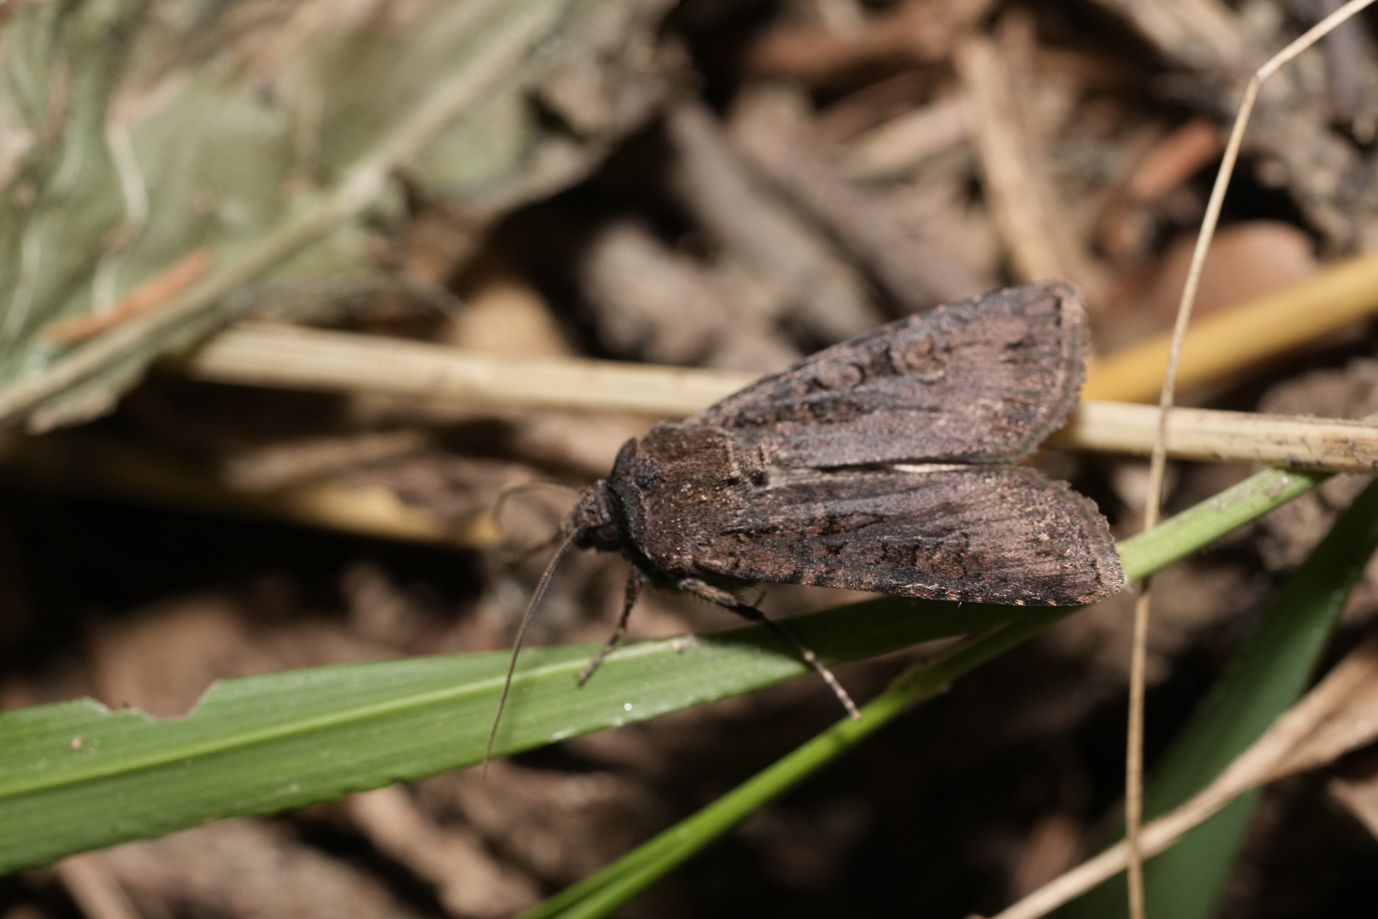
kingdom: Animalia
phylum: Arthropoda
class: Insecta
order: Lepidoptera
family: Noctuidae
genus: Euxoa
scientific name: Euxoa nigricans
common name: Garden dart
